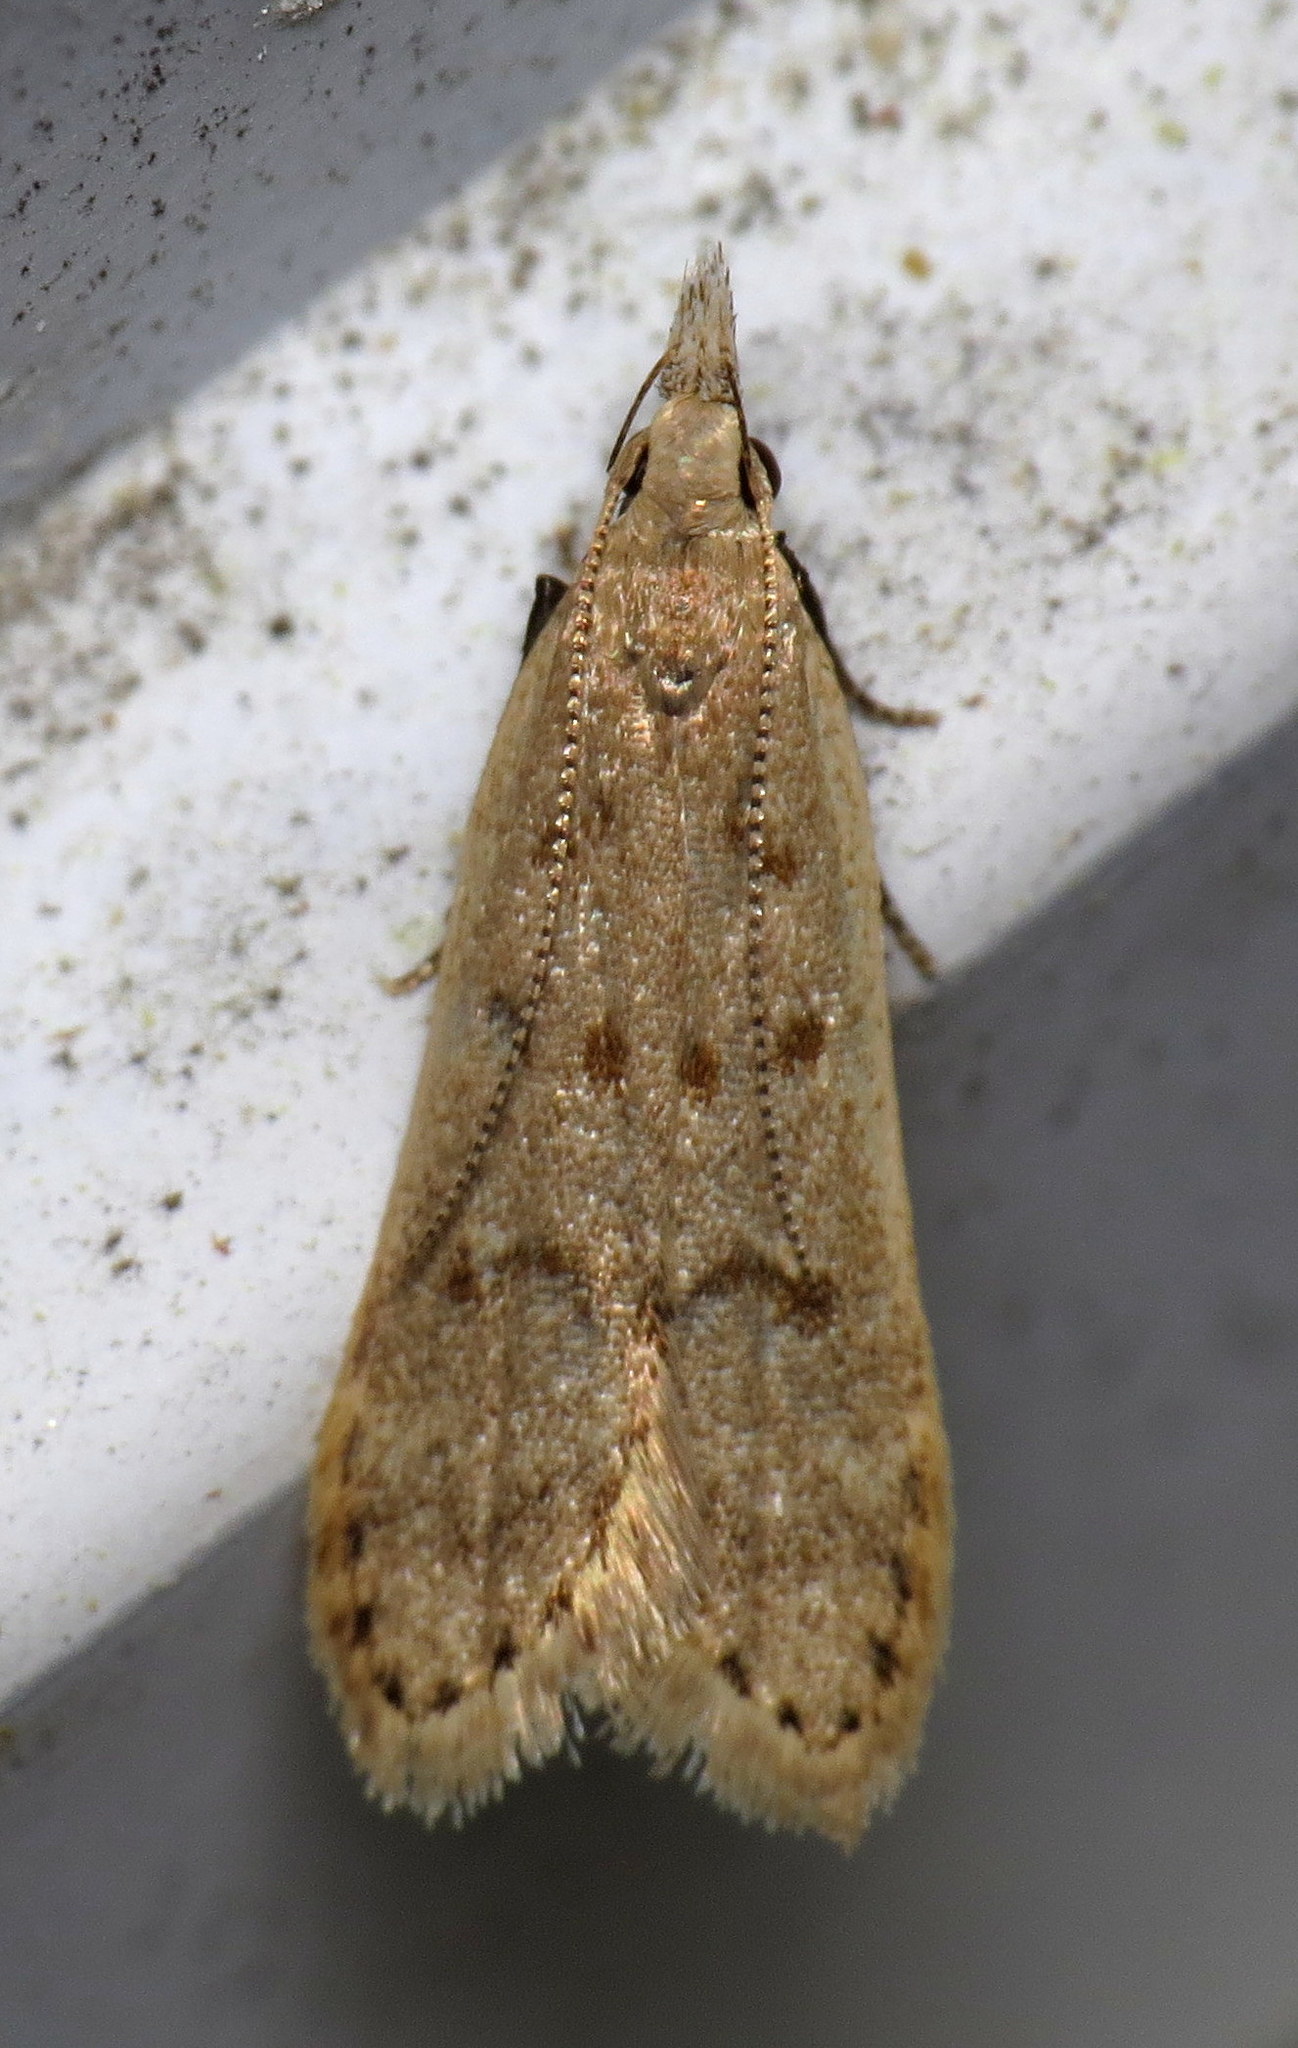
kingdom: Animalia
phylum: Arthropoda
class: Insecta
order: Lepidoptera
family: Gelechiidae
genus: Dichomeris
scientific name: Dichomeris punctidiscellus
